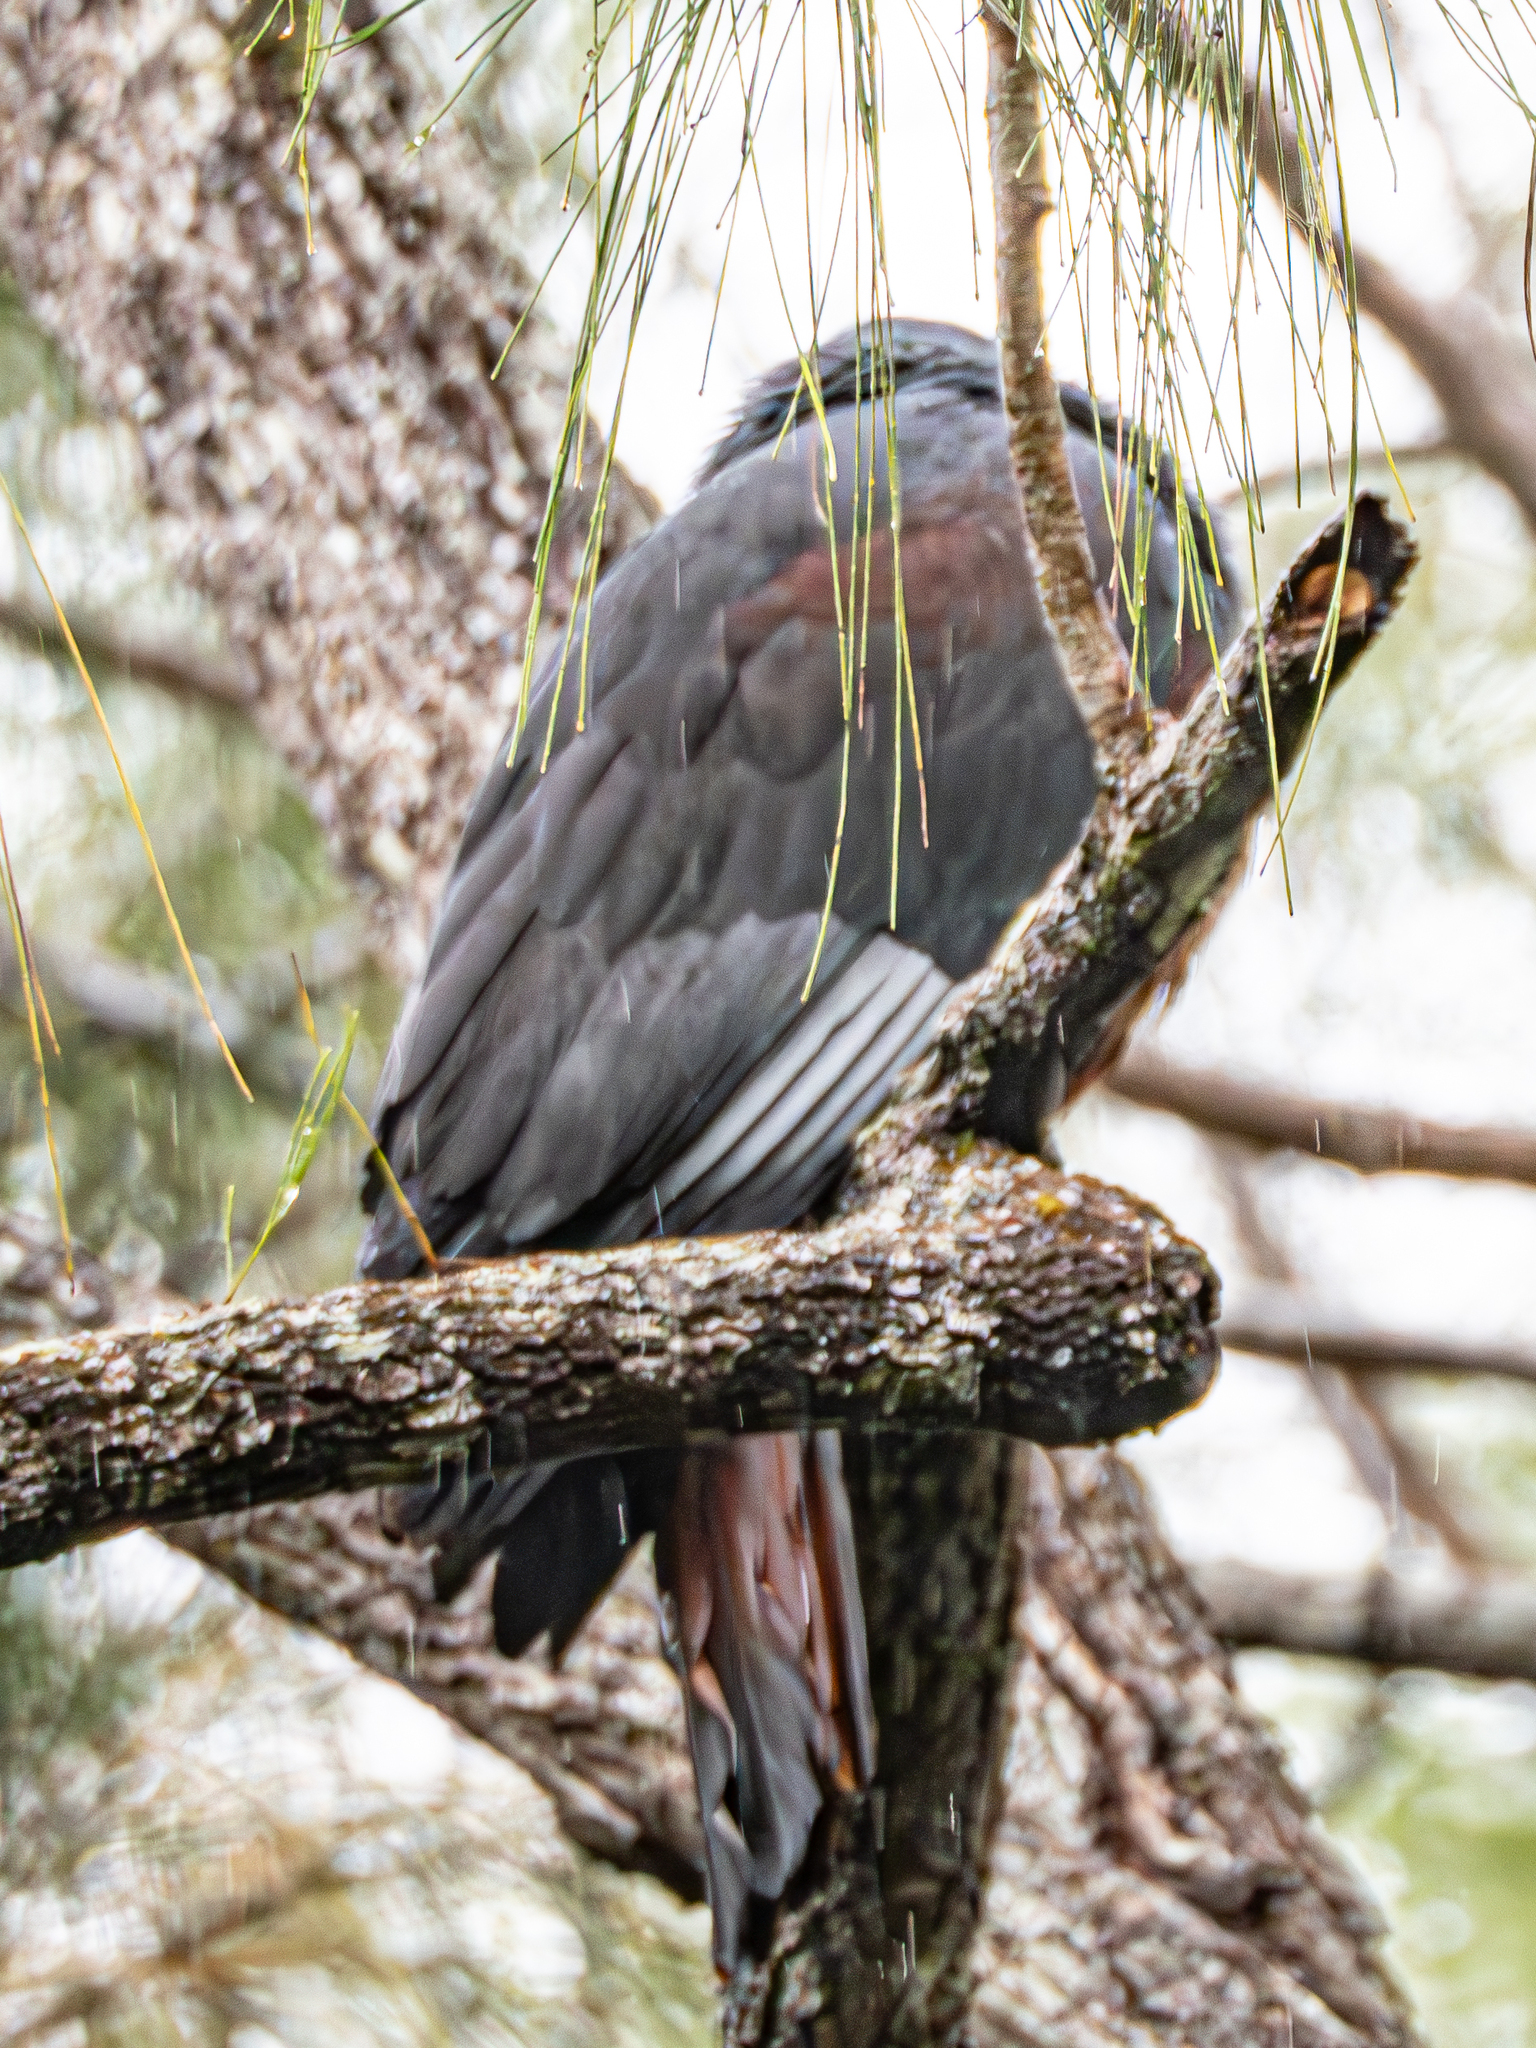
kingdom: Animalia
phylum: Chordata
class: Aves
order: Columbiformes
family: Columbidae
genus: Ducula
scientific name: Ducula goliath
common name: Goliath imperial pigeon
